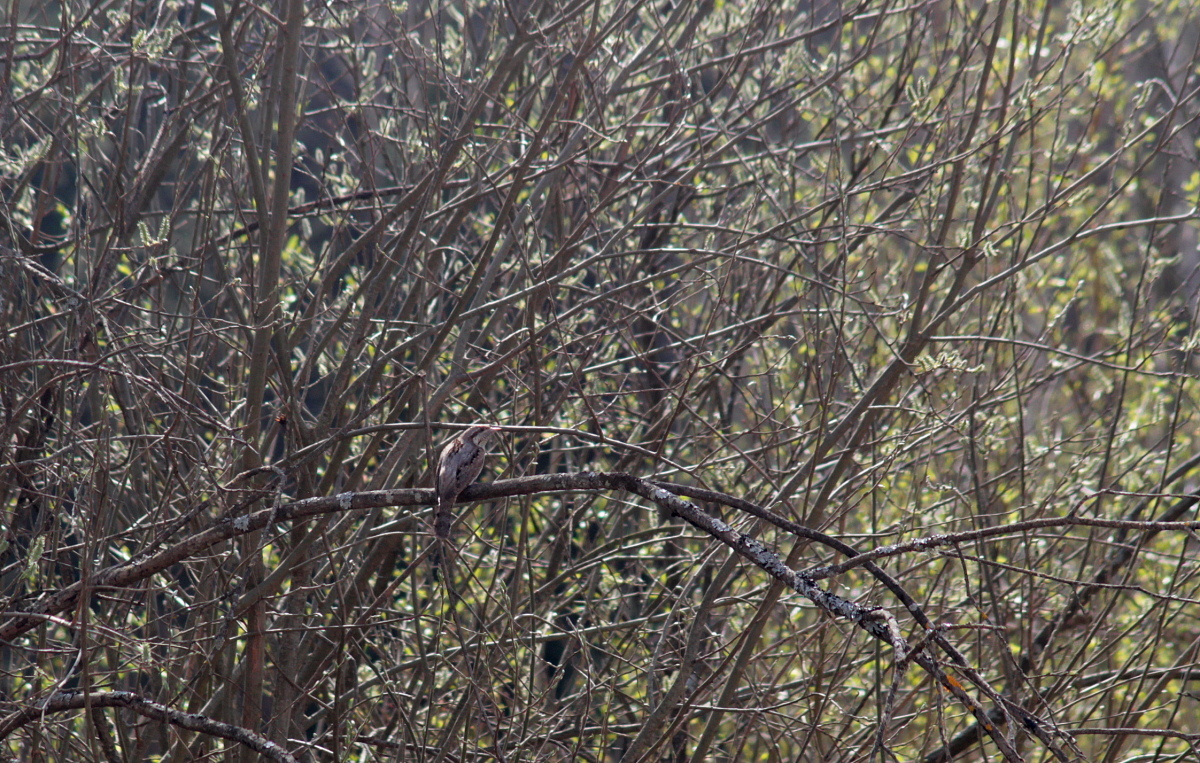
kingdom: Animalia
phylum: Chordata
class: Aves
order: Piciformes
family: Picidae
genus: Jynx
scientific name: Jynx torquilla
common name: Eurasian wryneck
